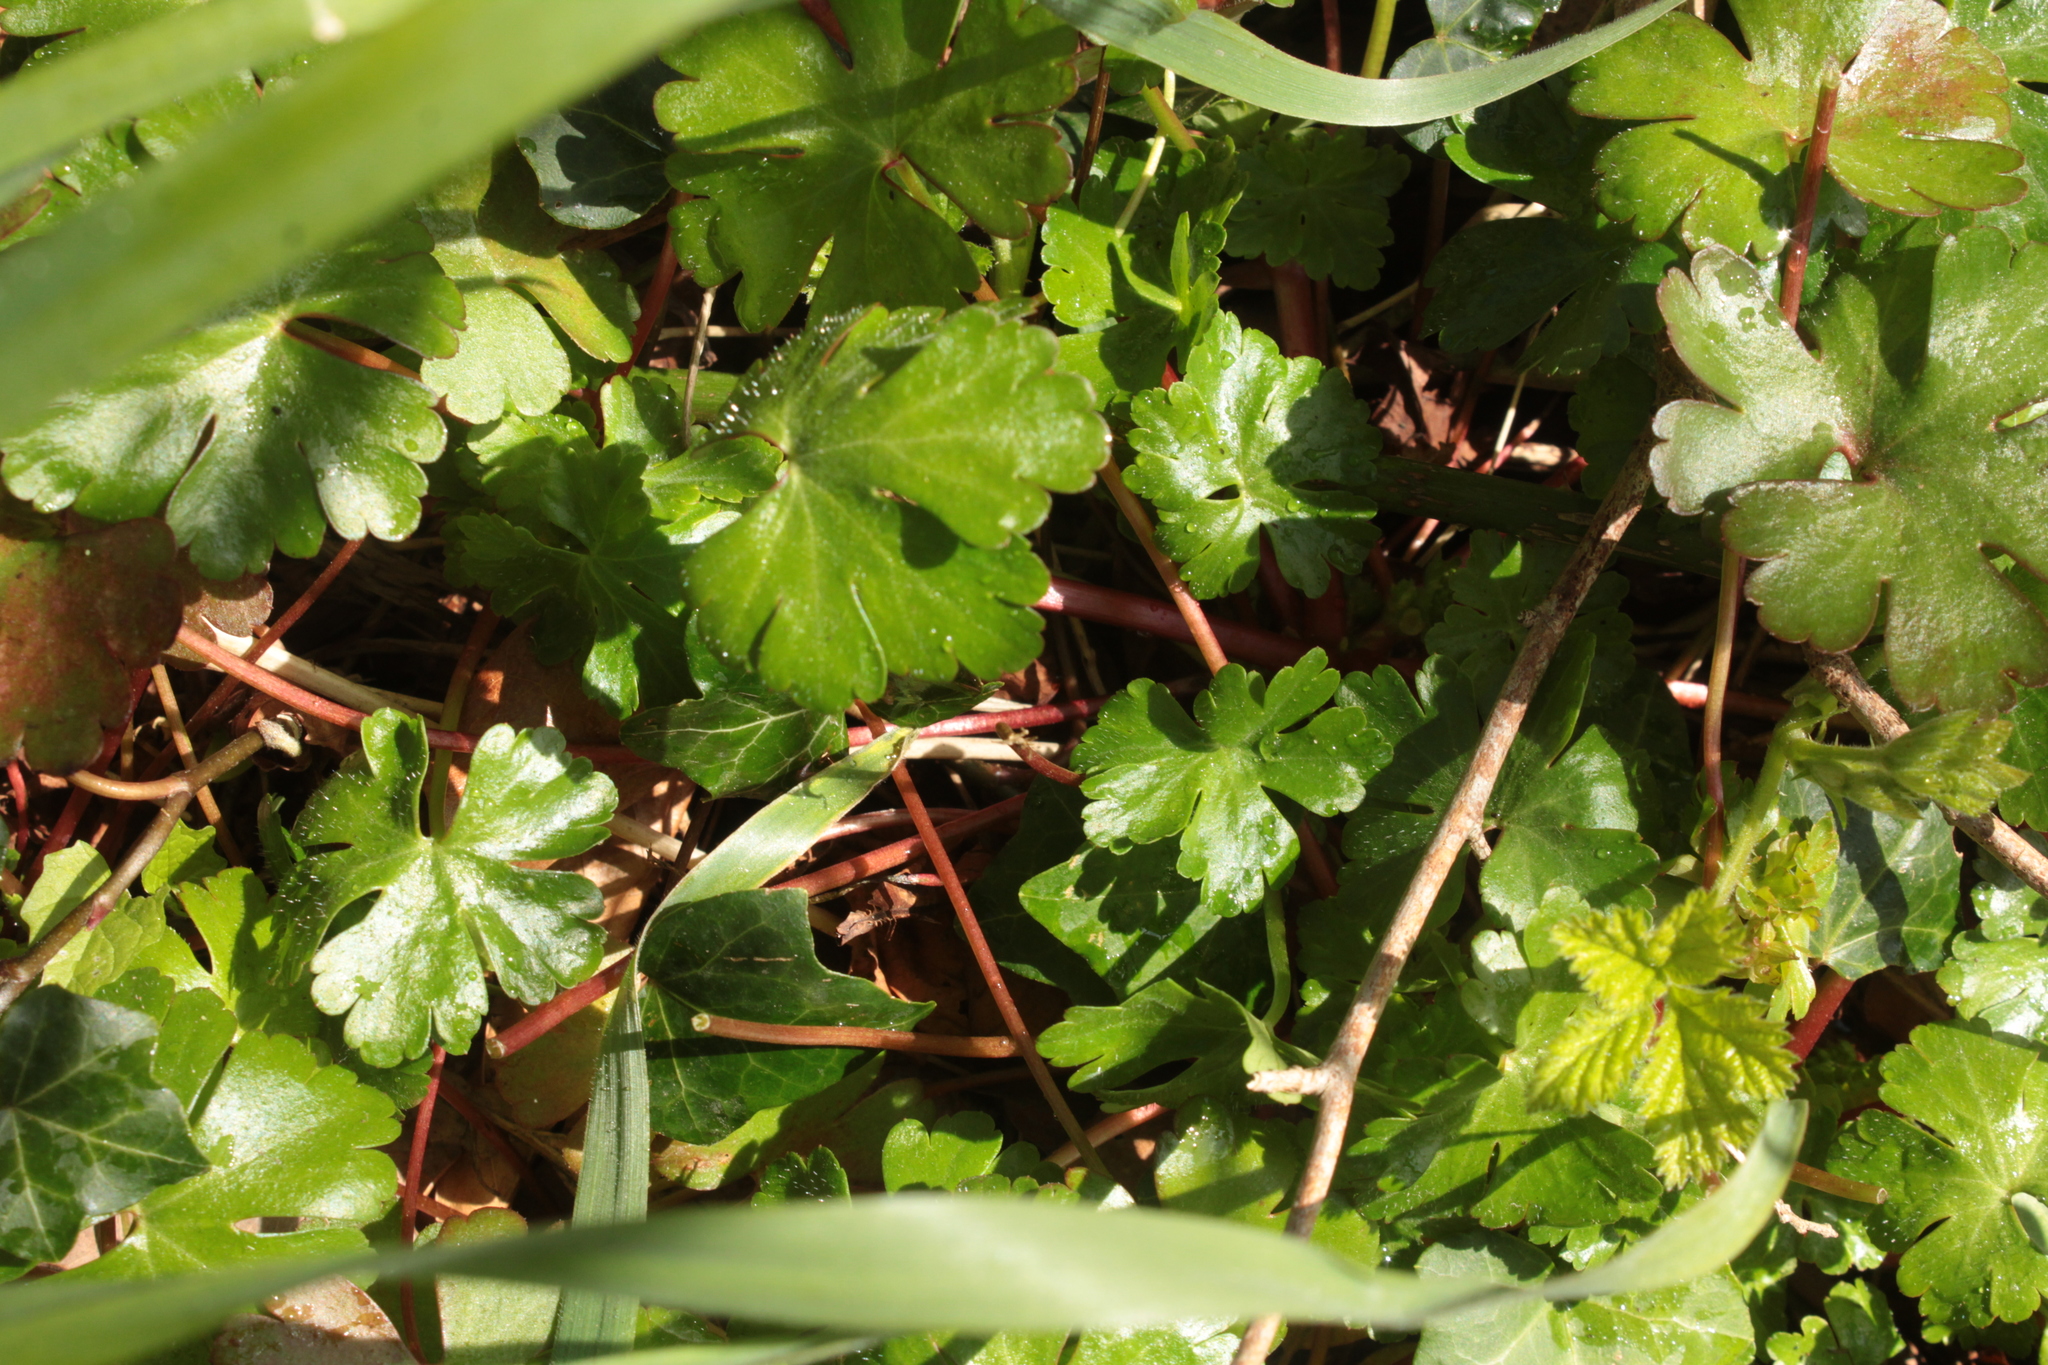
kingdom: Plantae
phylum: Tracheophyta
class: Magnoliopsida
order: Geraniales
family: Geraniaceae
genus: Geranium
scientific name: Geranium lucidum
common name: Shining crane's-bill
